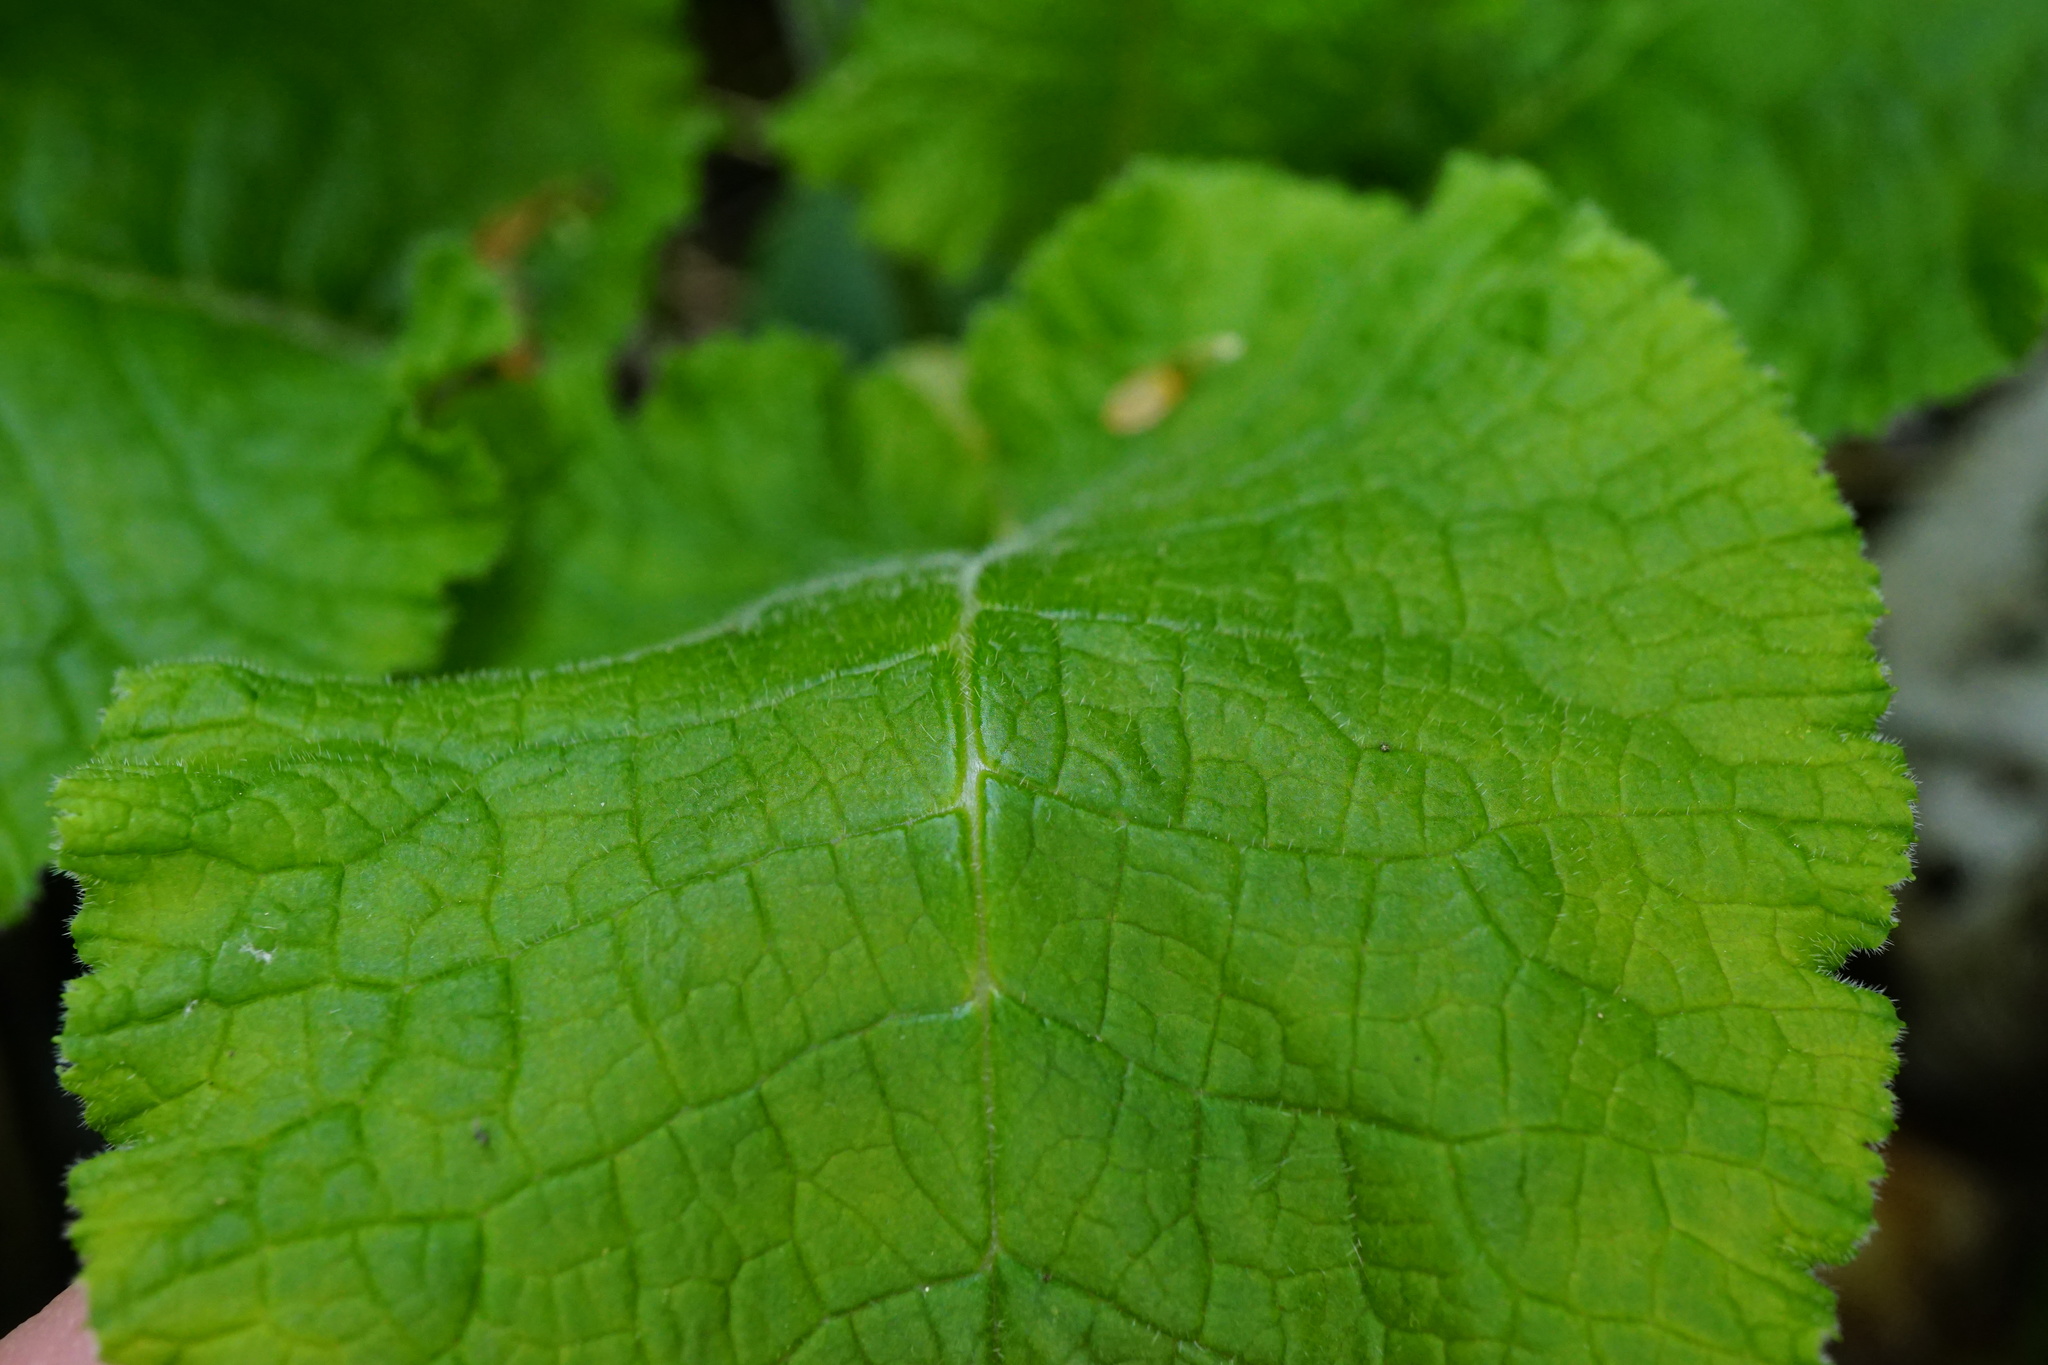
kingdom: Plantae
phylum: Tracheophyta
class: Magnoliopsida
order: Ericales
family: Primulaceae
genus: Primula
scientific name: Primula elatior
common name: Oxlip
